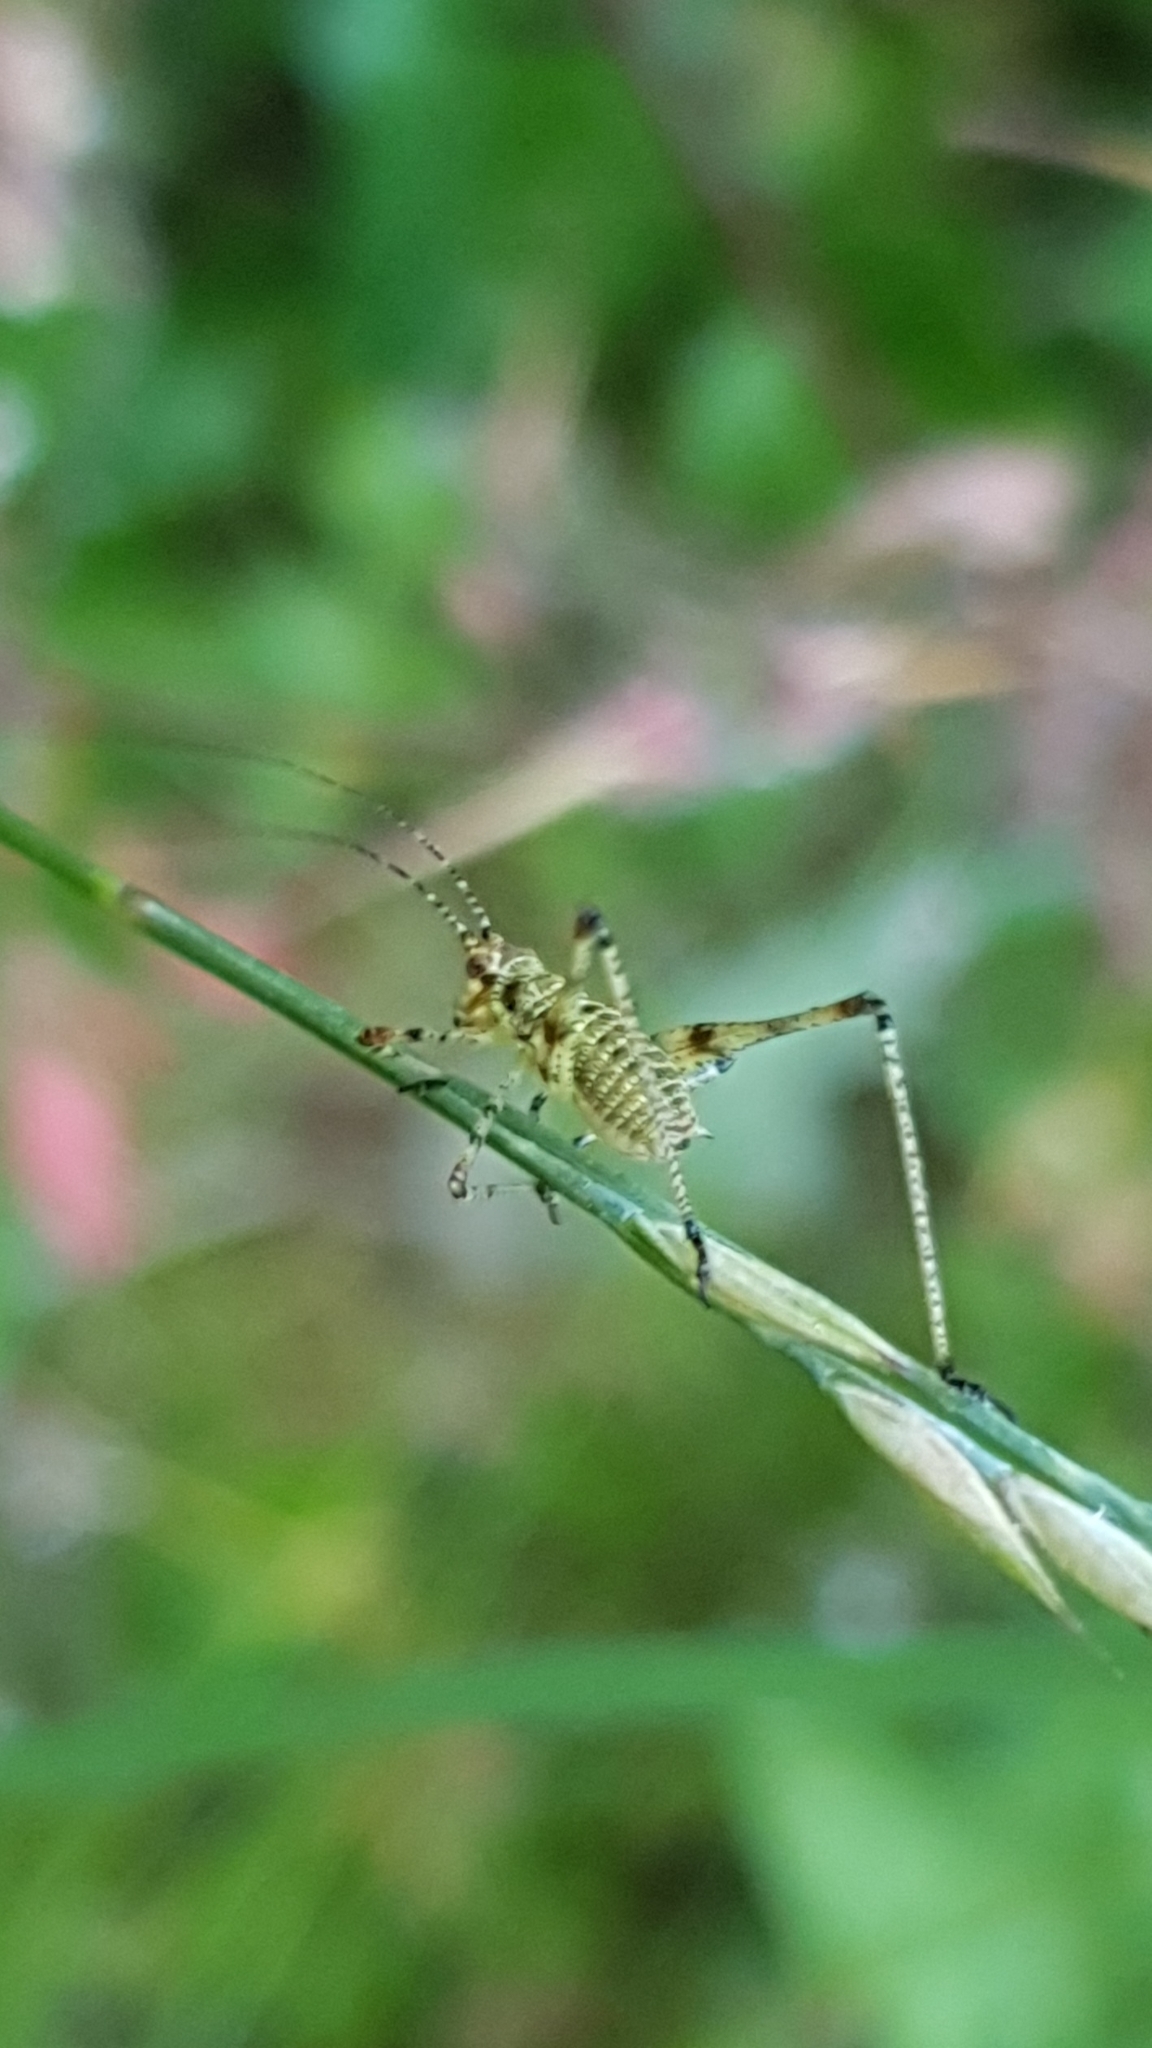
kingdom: Animalia
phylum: Arthropoda
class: Insecta
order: Orthoptera
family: Tettigoniidae
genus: Phaneroptera
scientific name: Phaneroptera nana
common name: Southern sickle bush-cricket
